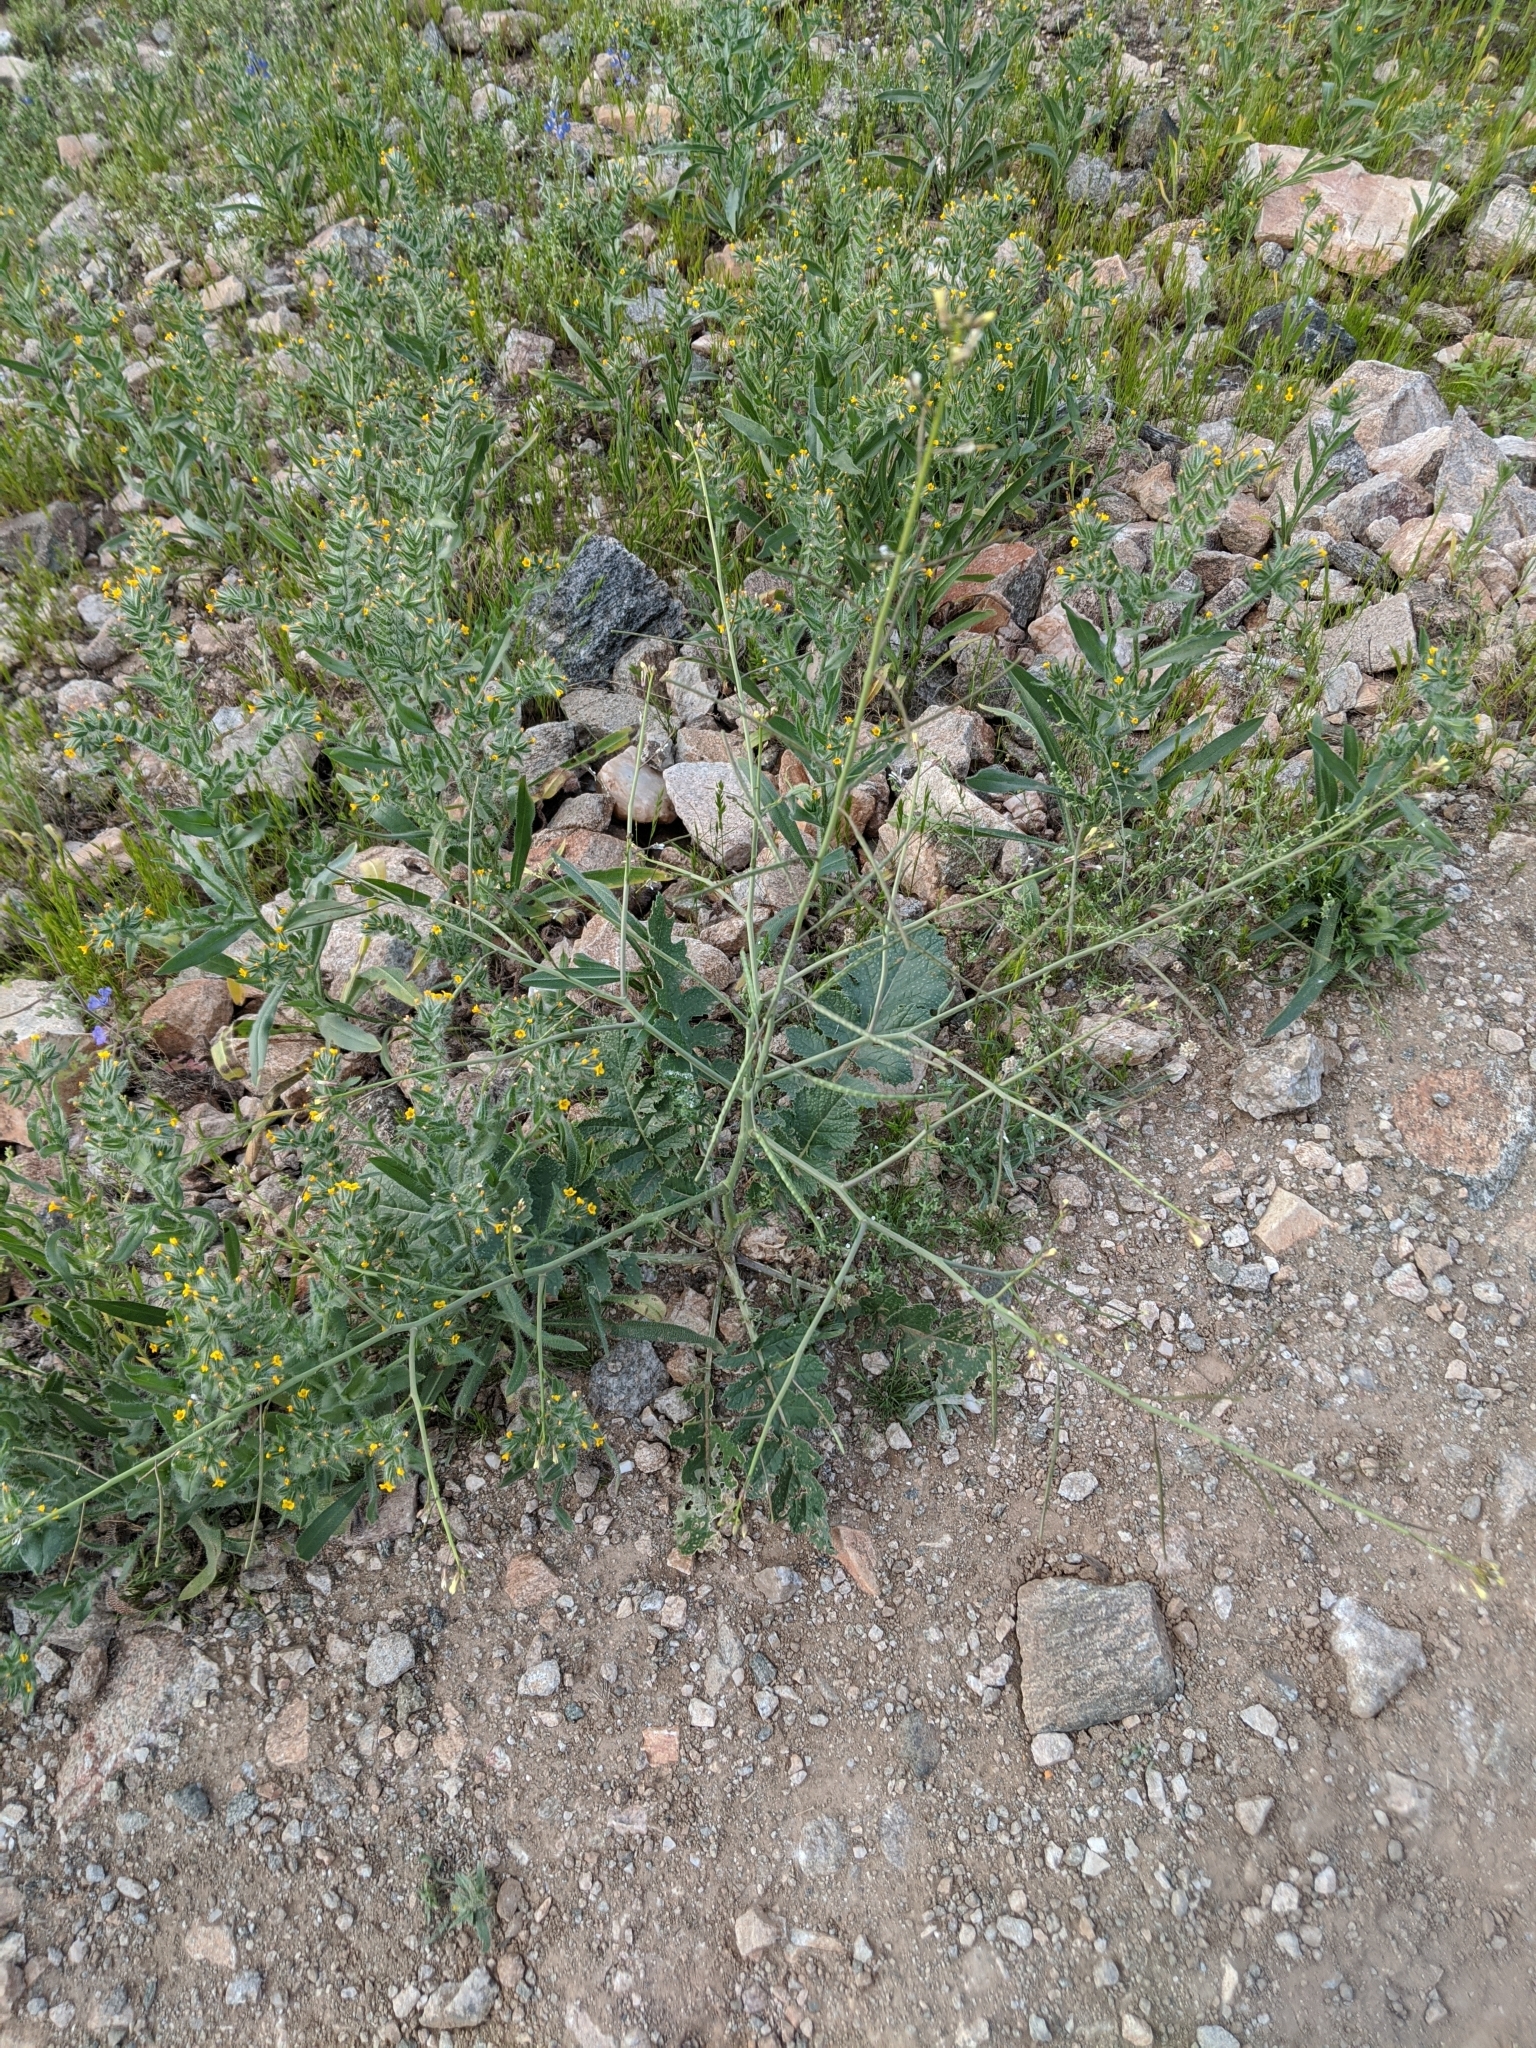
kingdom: Plantae
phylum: Tracheophyta
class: Magnoliopsida
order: Brassicales
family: Brassicaceae
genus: Brassica
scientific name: Brassica tournefortii
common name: Pale cabbage
